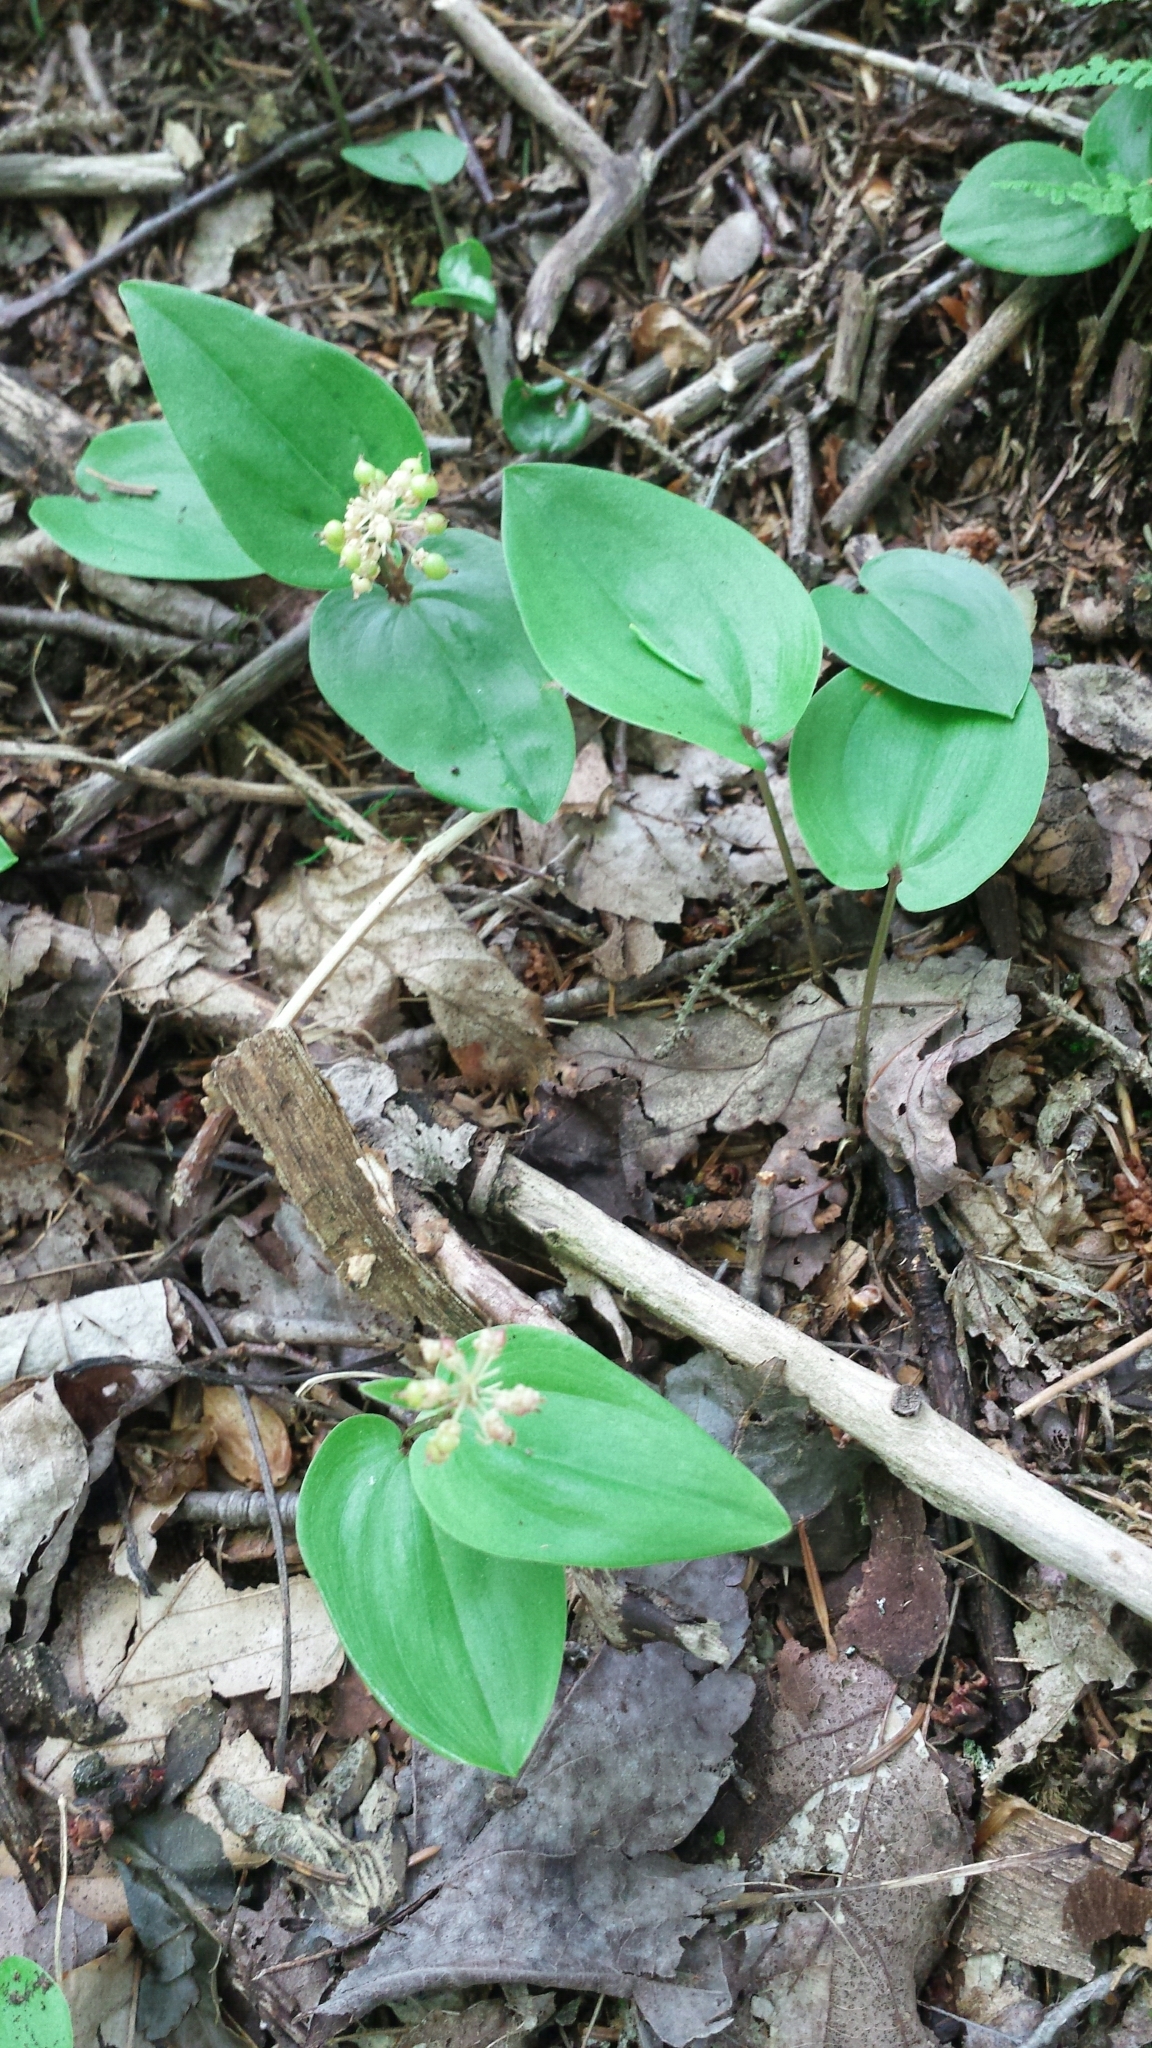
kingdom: Plantae
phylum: Tracheophyta
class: Liliopsida
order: Asparagales
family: Asparagaceae
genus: Maianthemum
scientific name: Maianthemum canadense
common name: False lily-of-the-valley
